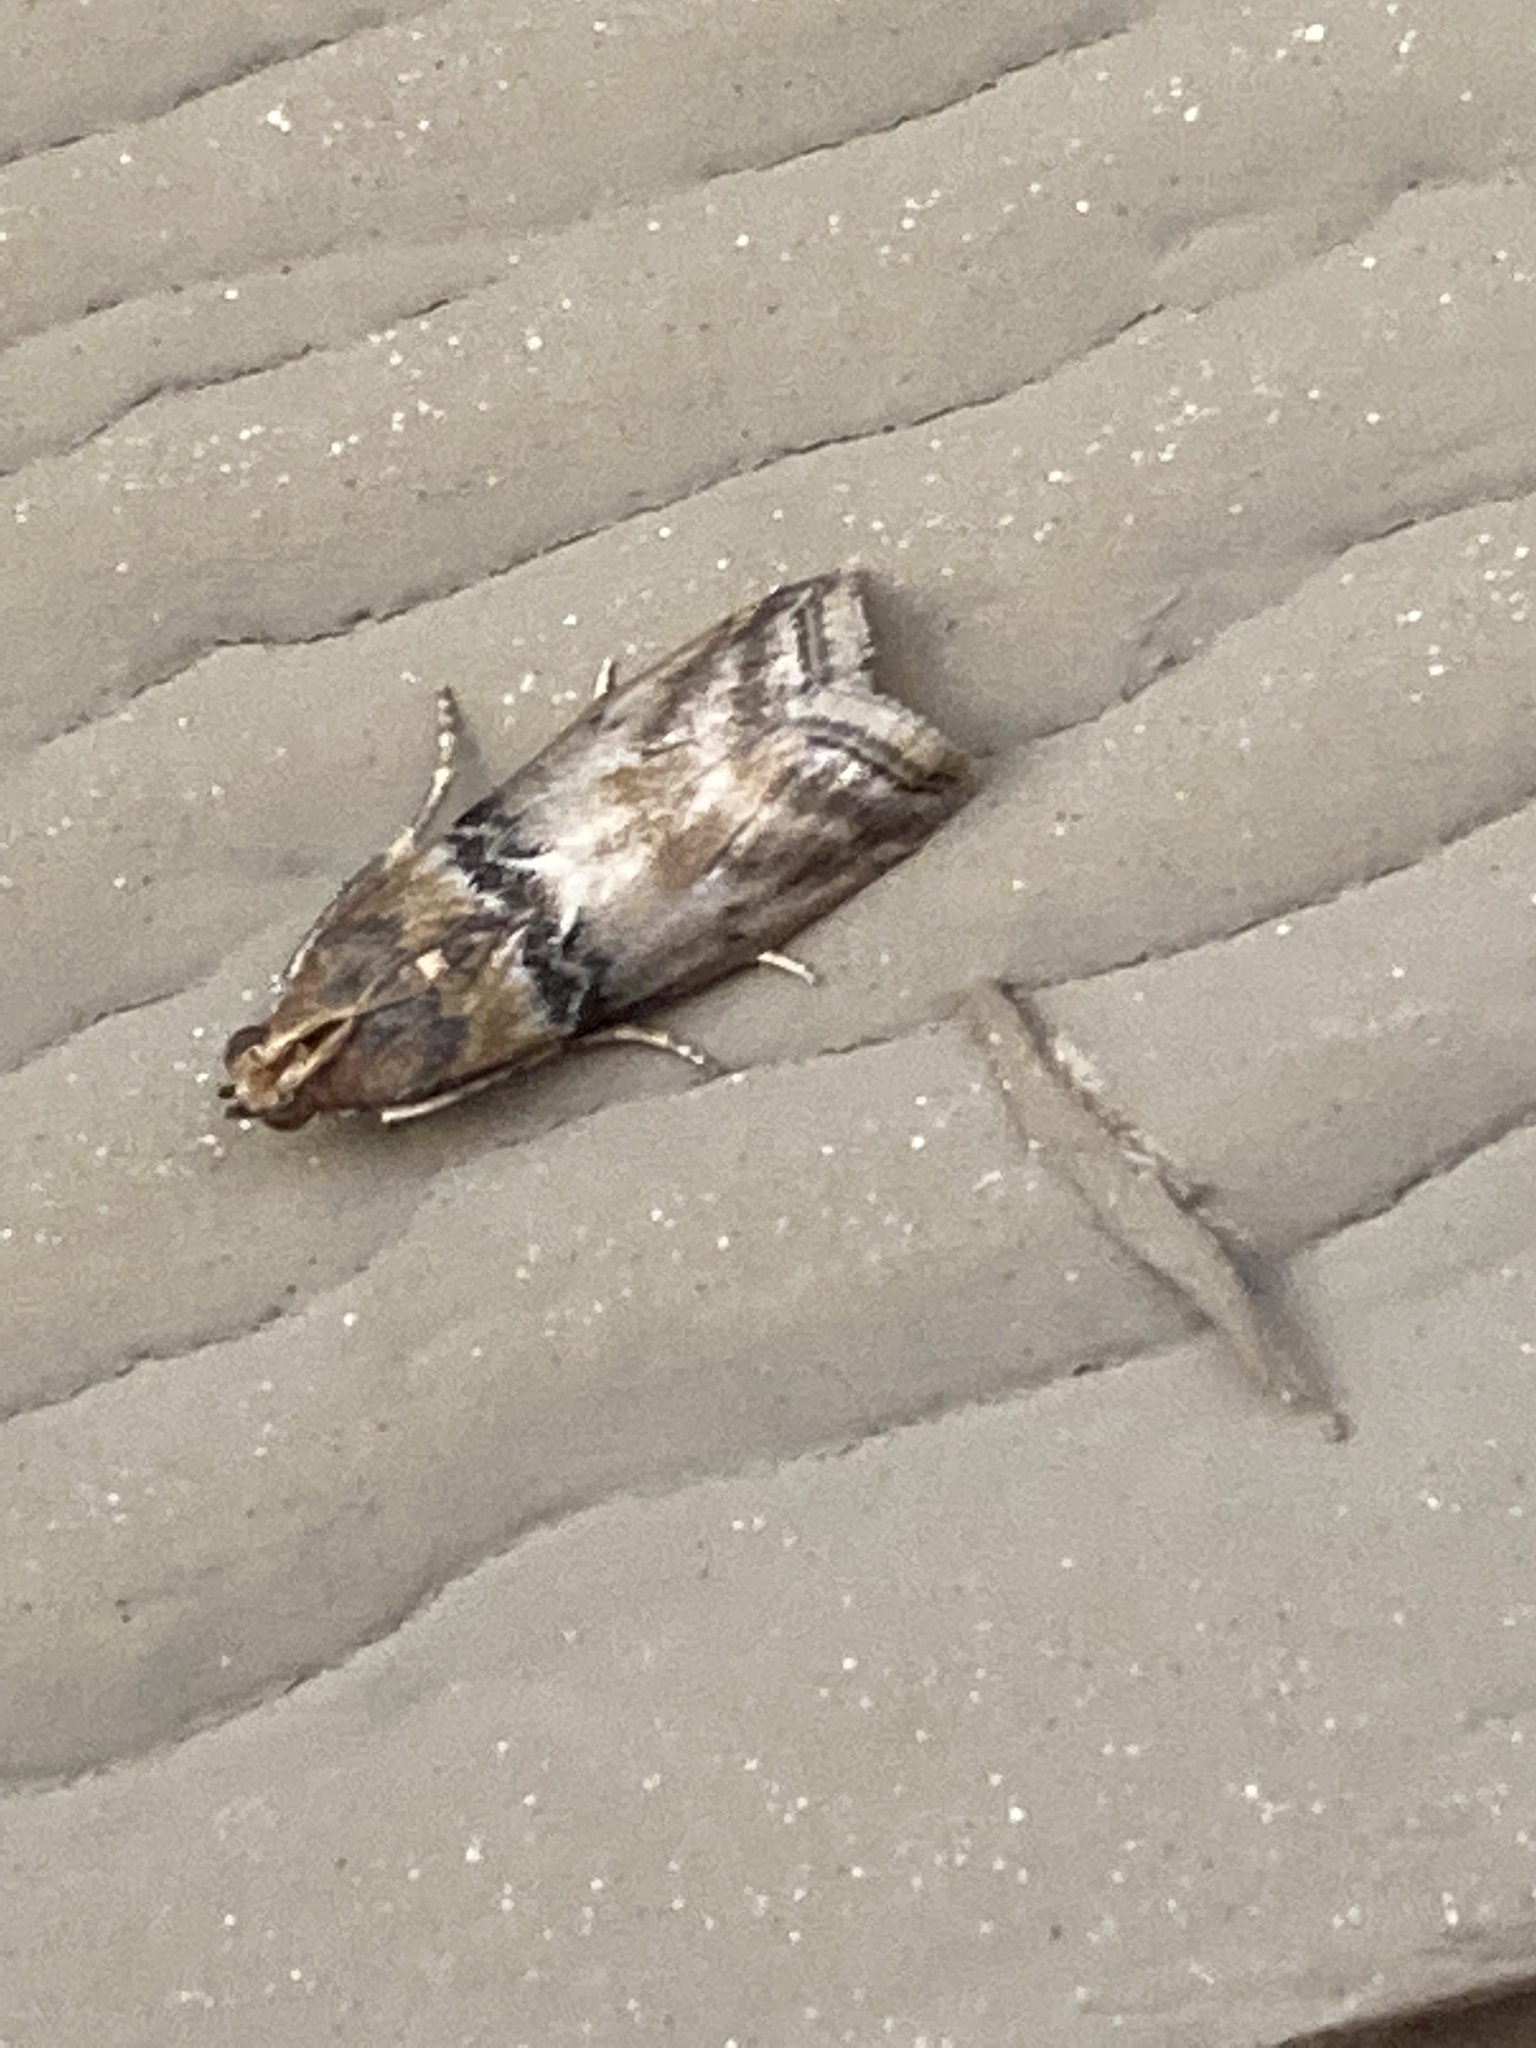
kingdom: Animalia
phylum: Arthropoda
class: Insecta
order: Lepidoptera
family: Pyralidae
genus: Meroptera
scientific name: Meroptera cviatella
